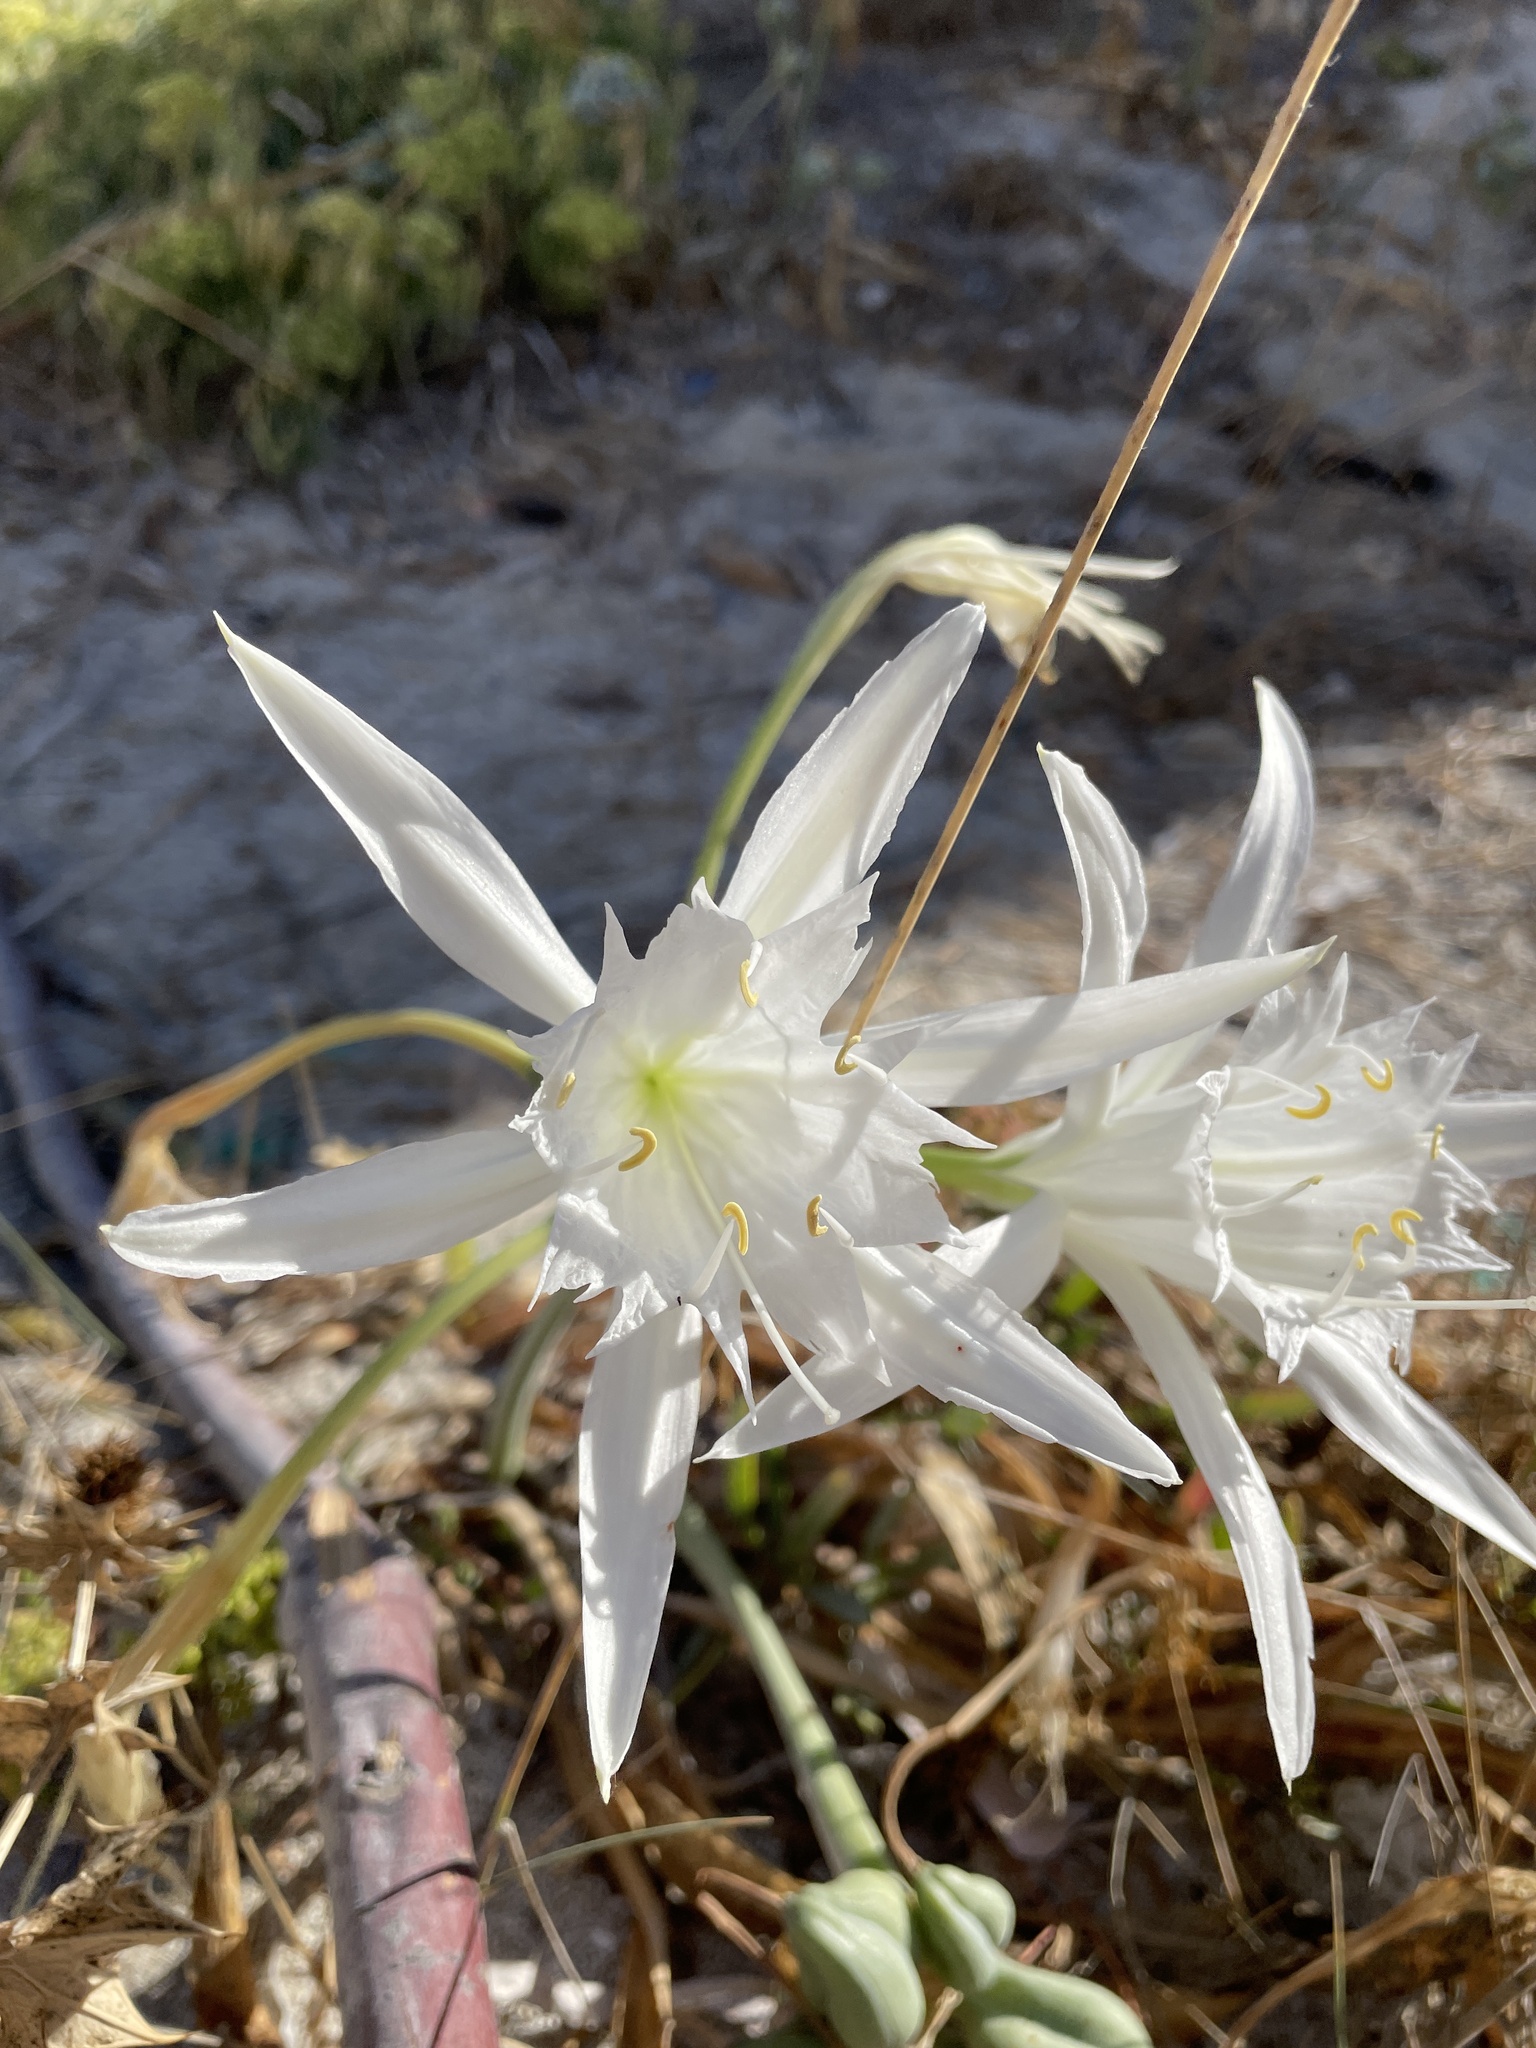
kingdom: Plantae
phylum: Tracheophyta
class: Liliopsida
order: Asparagales
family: Amaryllidaceae
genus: Pancratium
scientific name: Pancratium maritimum
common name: Sea-daffodil
